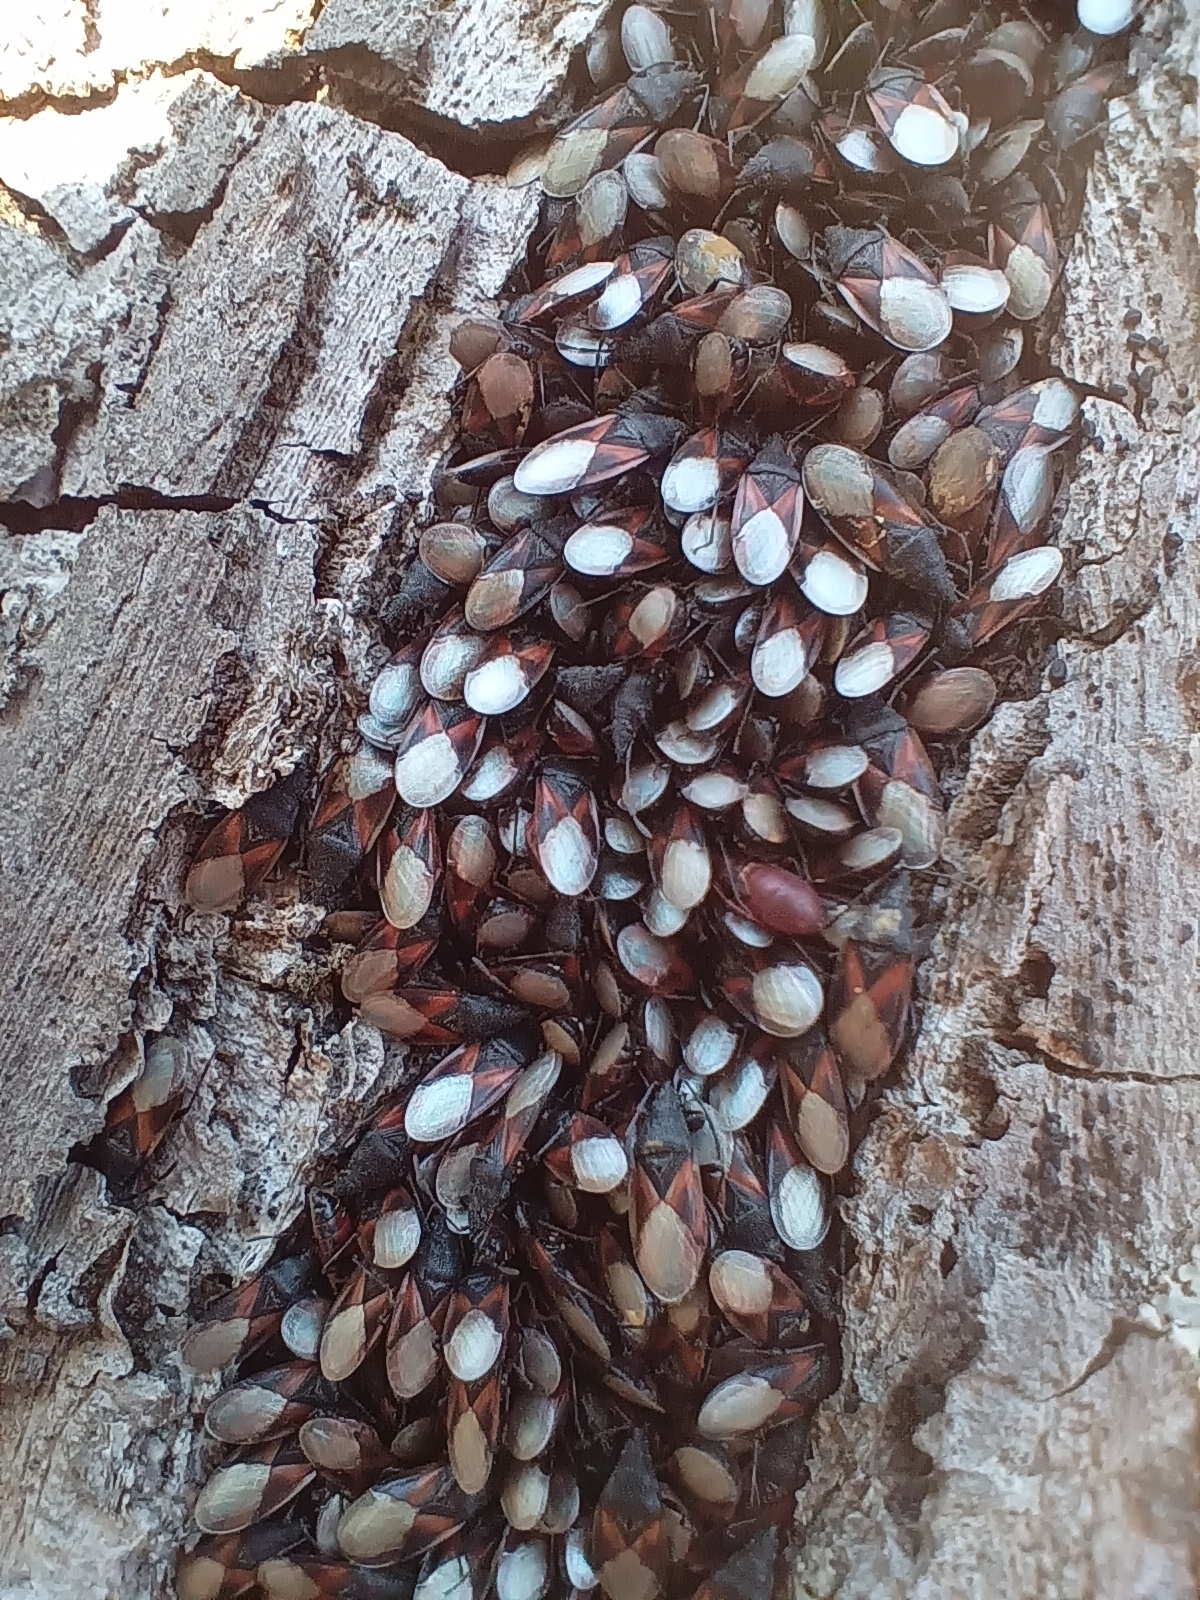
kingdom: Animalia
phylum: Arthropoda
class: Insecta
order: Hemiptera
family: Oxycarenidae
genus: Oxycarenus
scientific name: Oxycarenus lavaterae
